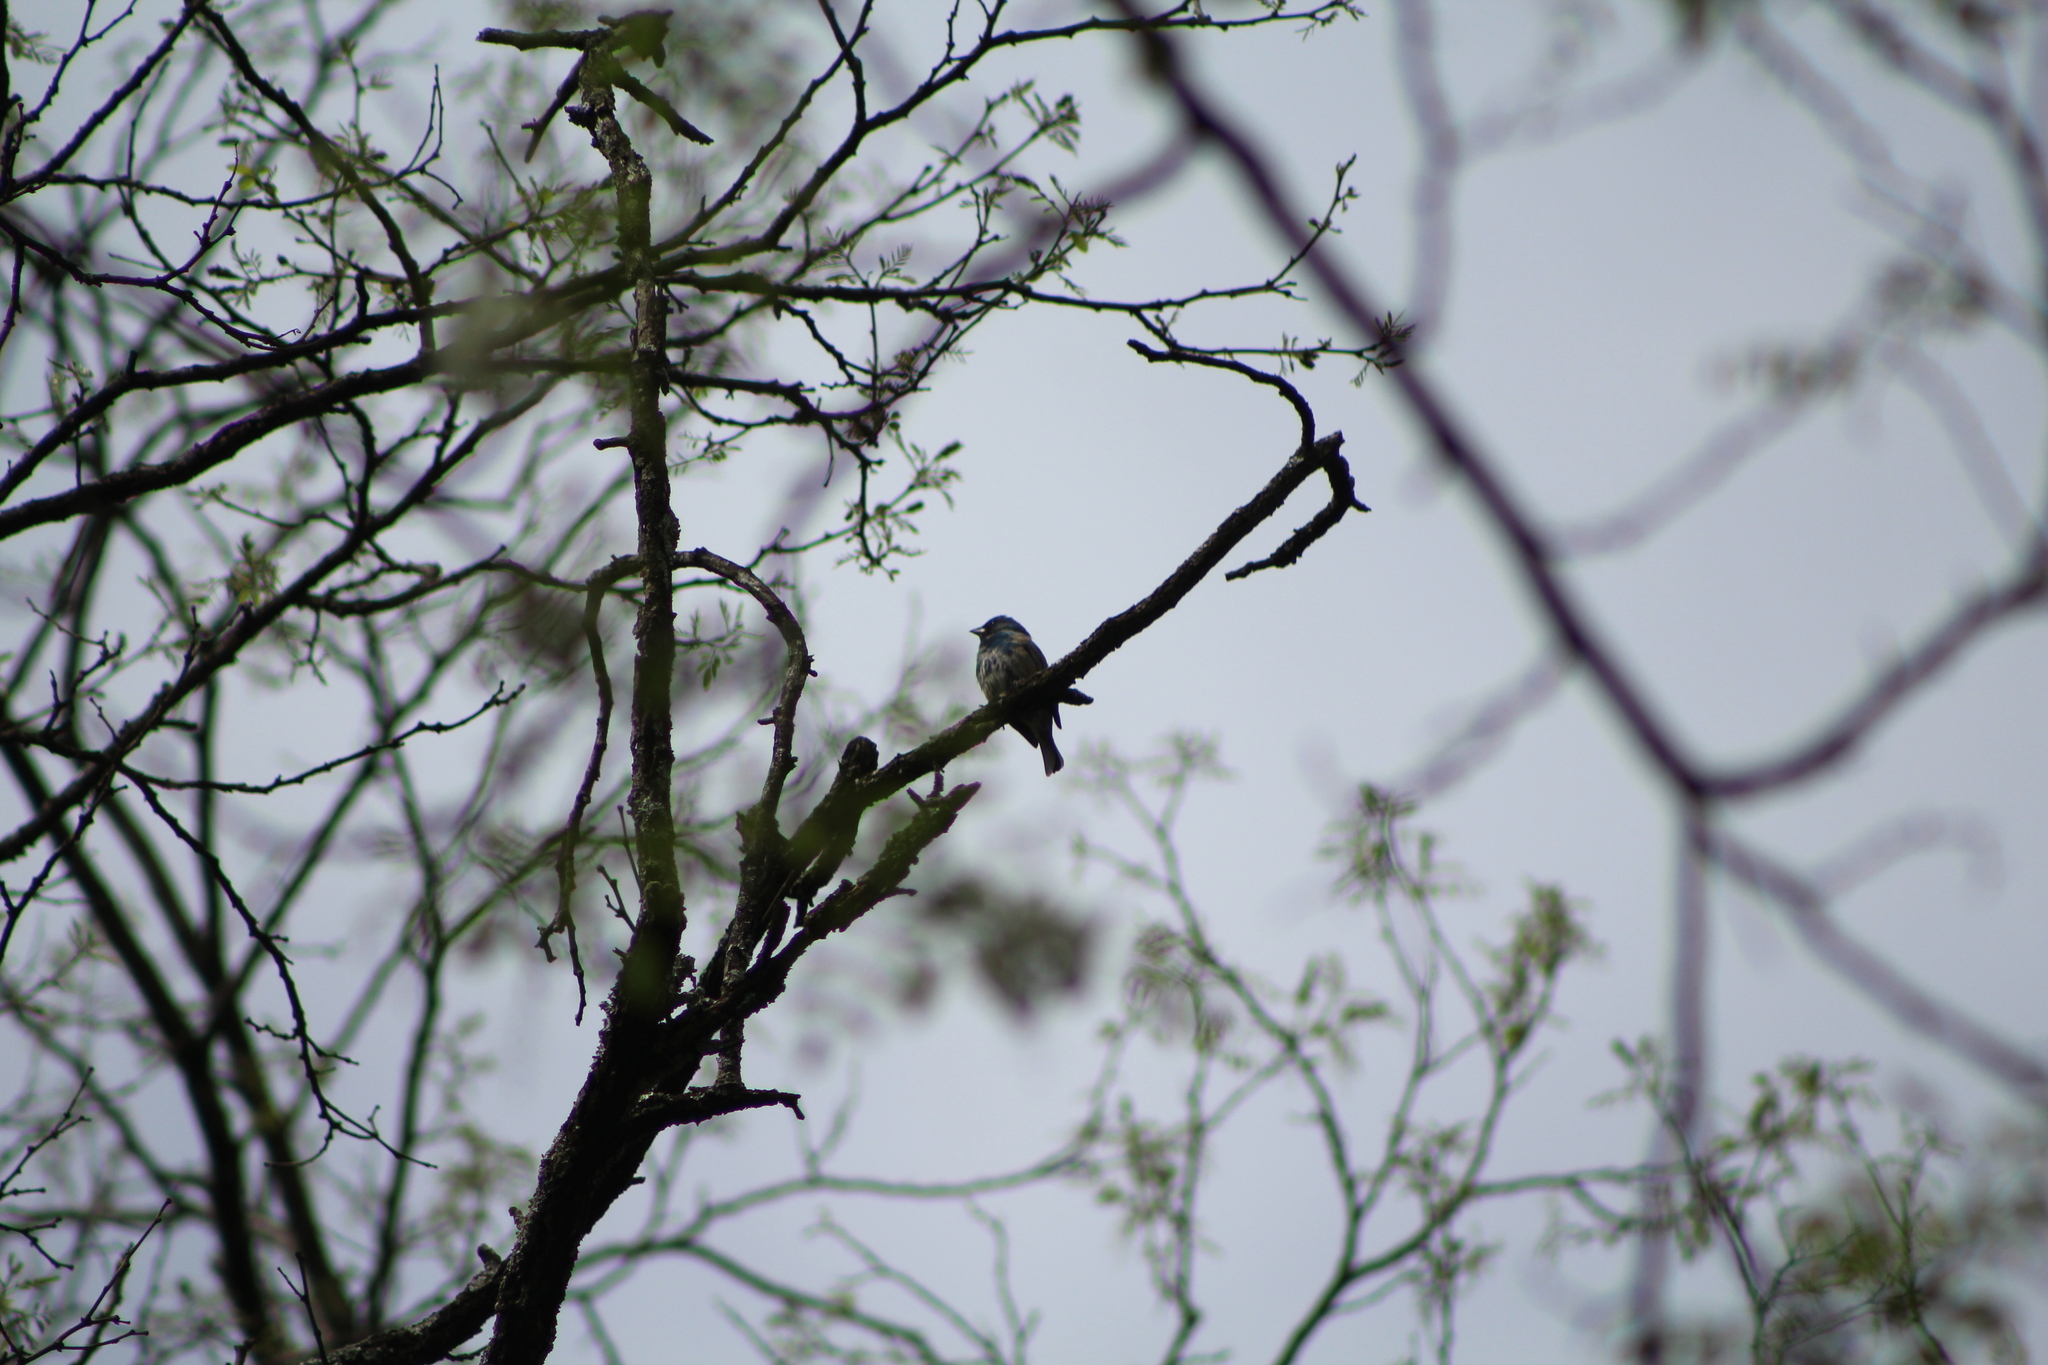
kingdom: Animalia
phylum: Chordata
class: Aves
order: Passeriformes
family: Cardinalidae
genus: Passerina
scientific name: Passerina cyanea
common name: Indigo bunting
